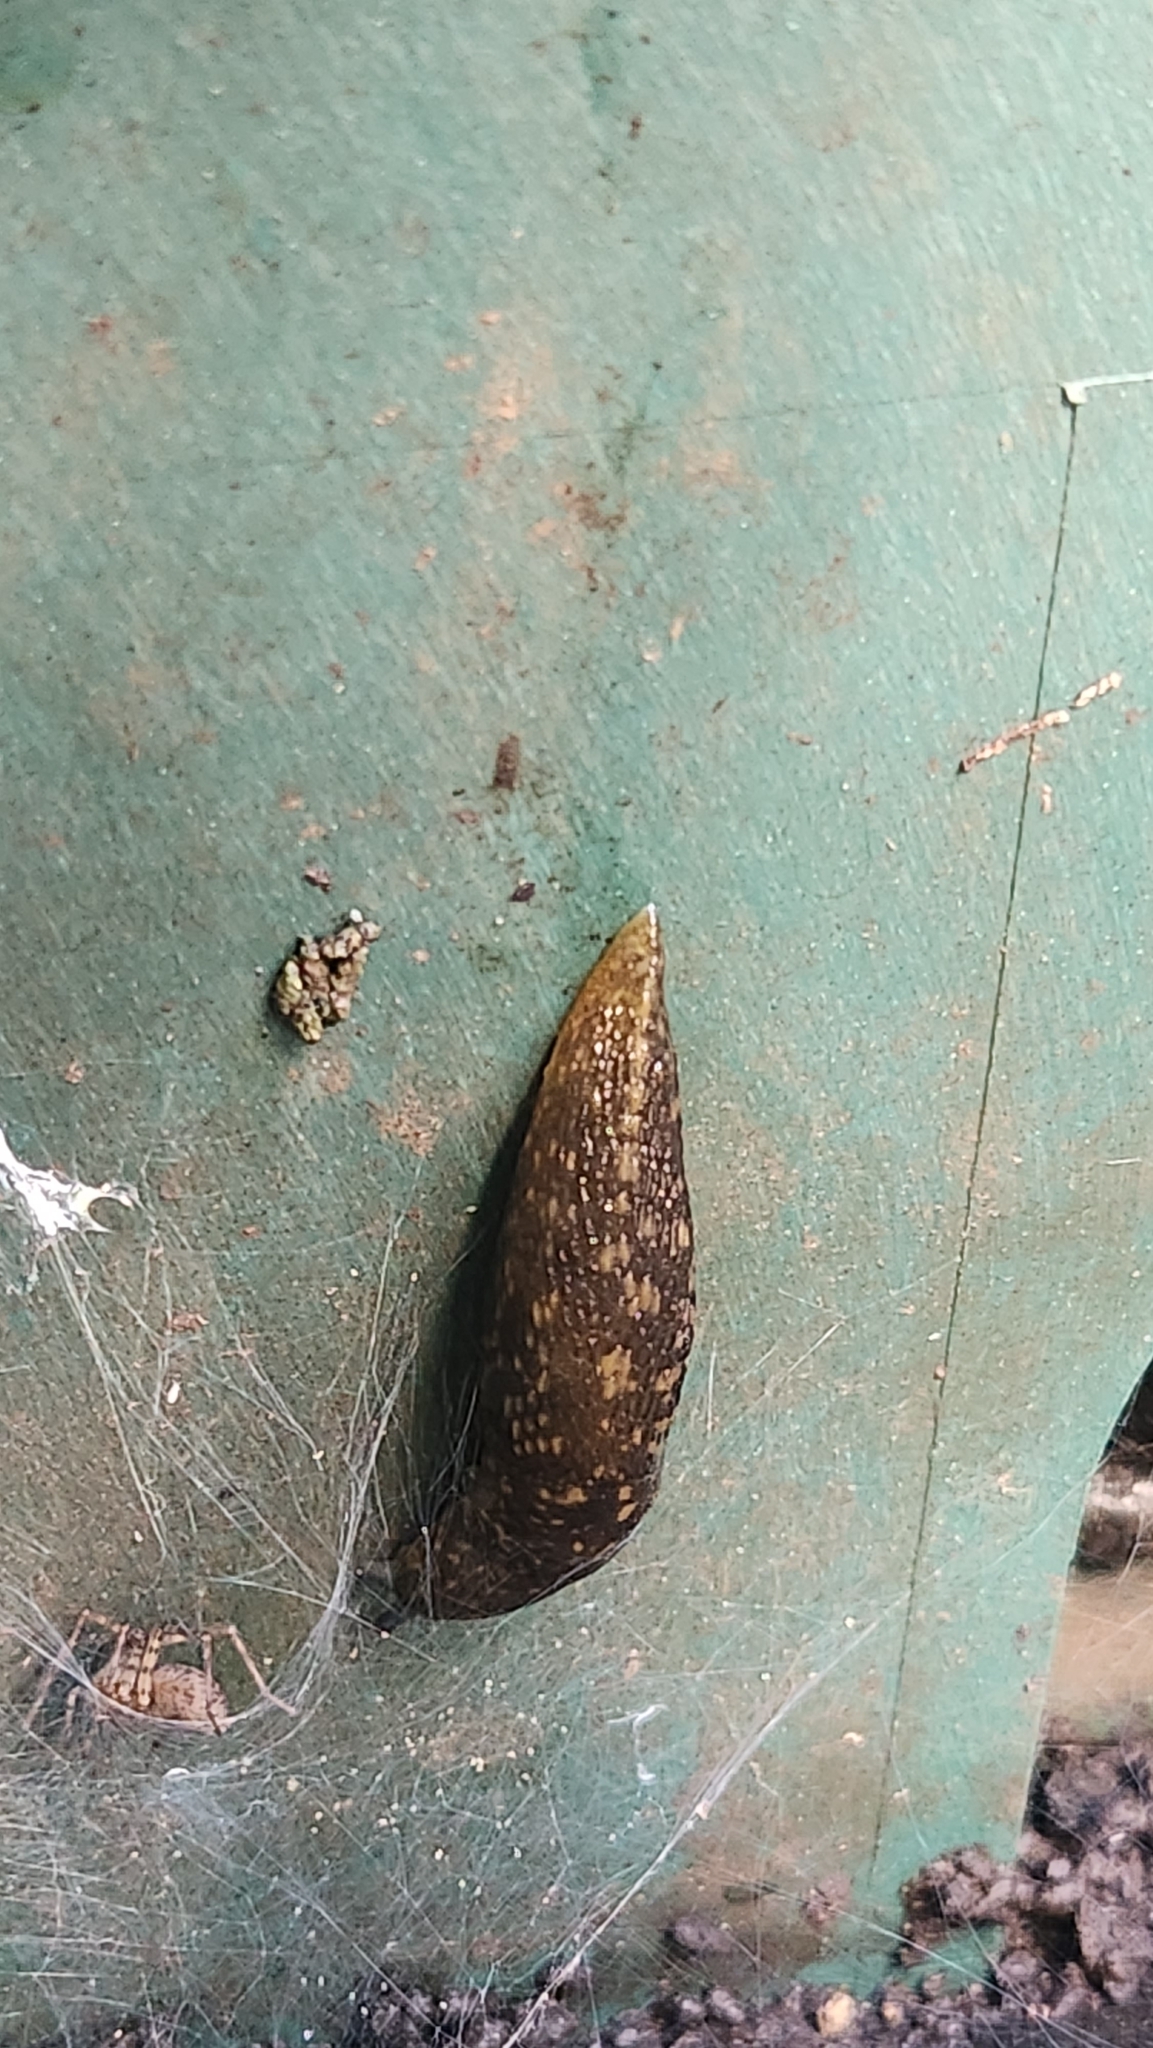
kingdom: Animalia
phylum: Mollusca
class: Gastropoda
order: Stylommatophora
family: Limacidae
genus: Limacus
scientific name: Limacus flavus
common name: Yellow gardenslug
